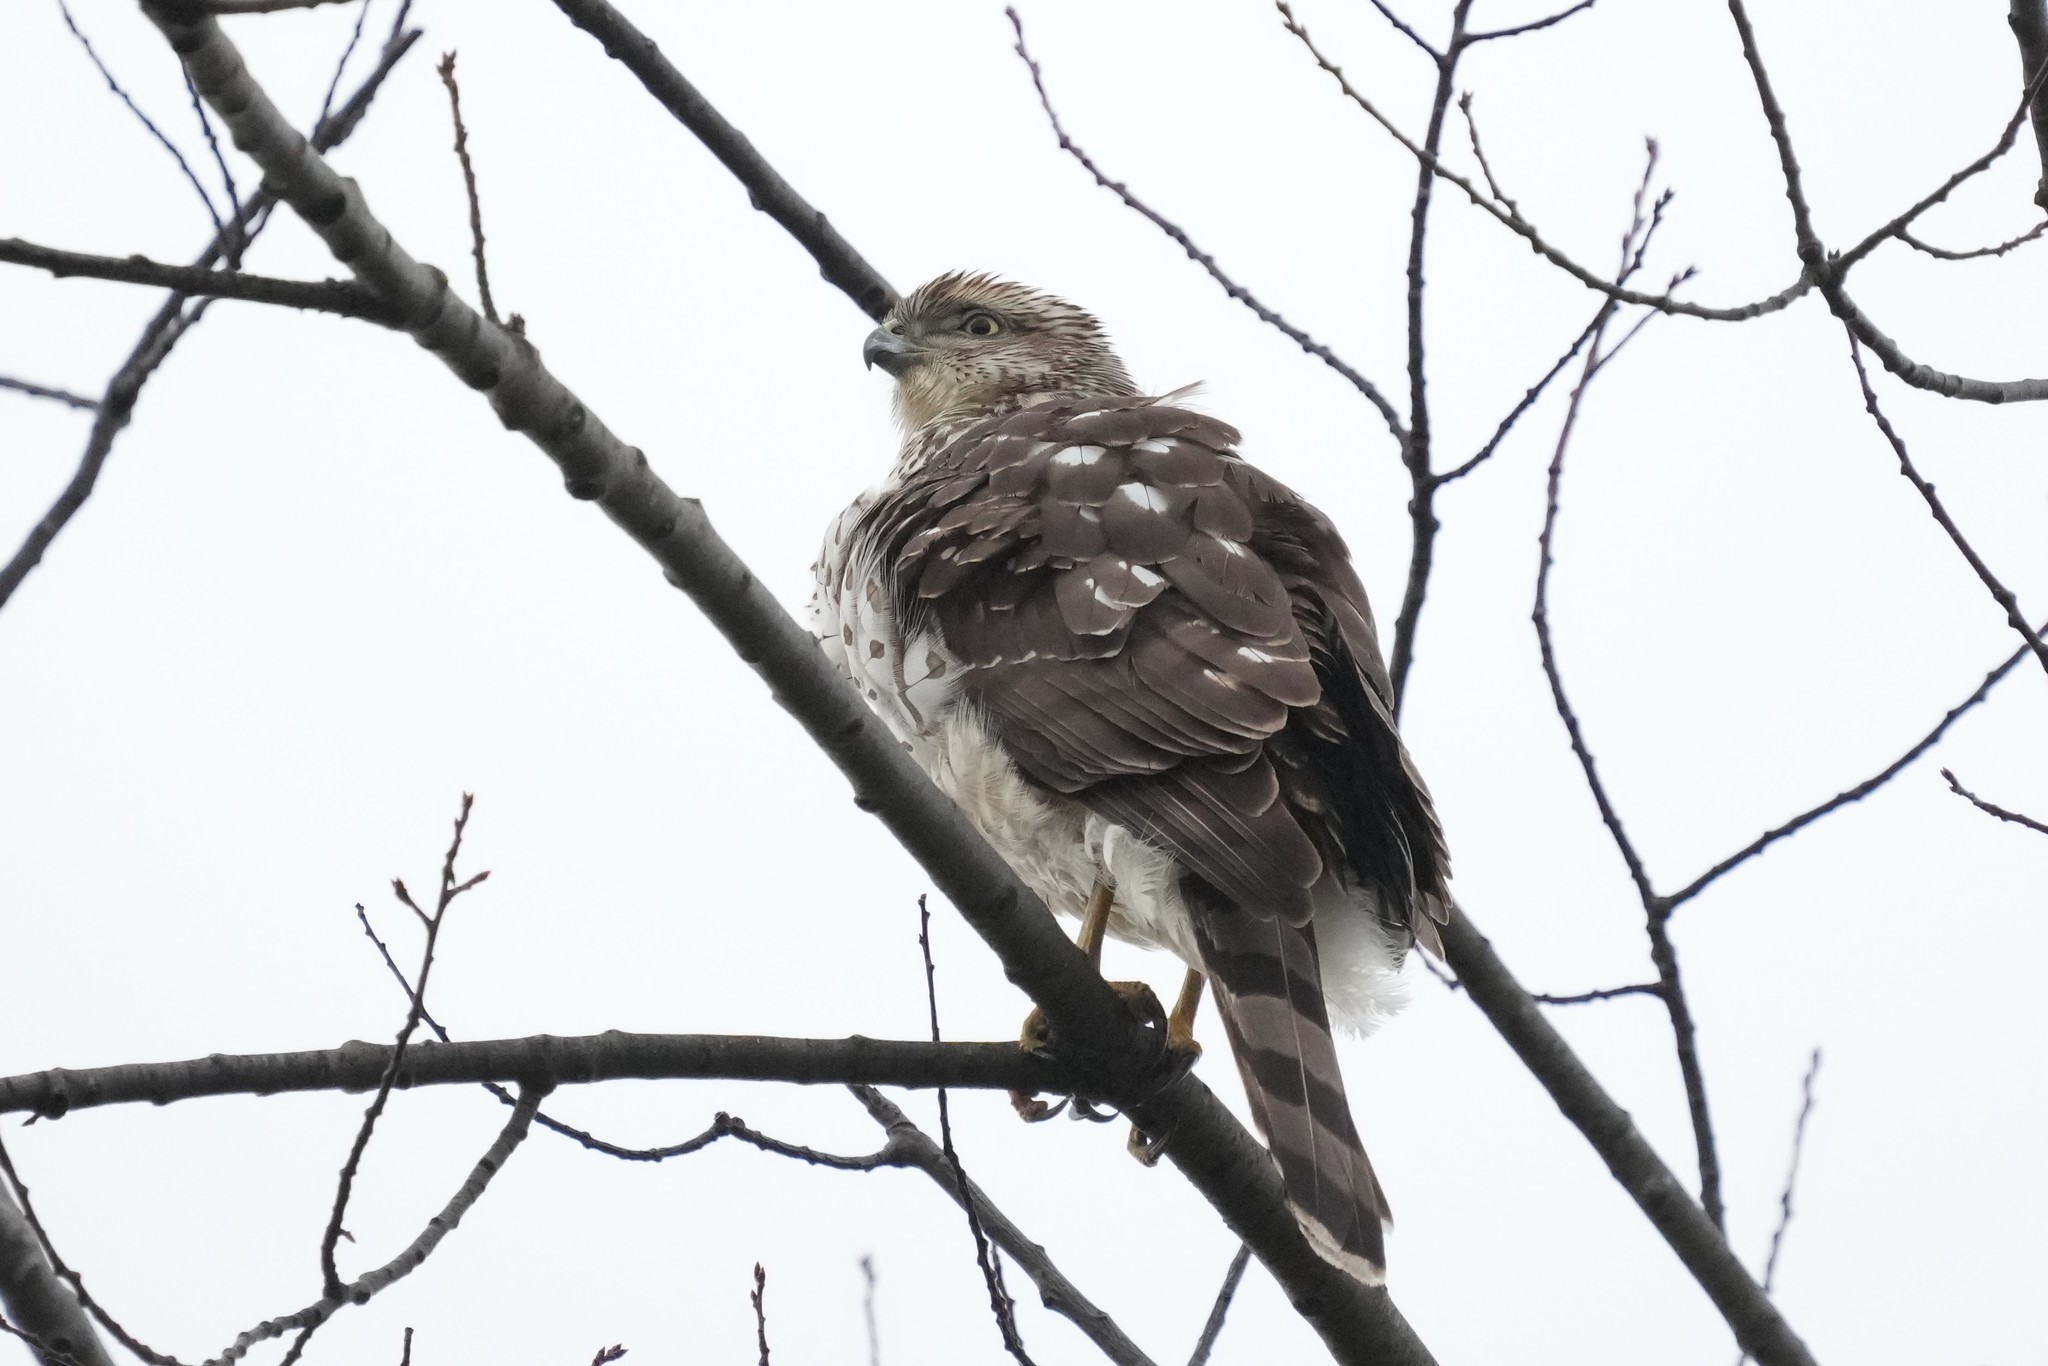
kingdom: Animalia
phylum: Chordata
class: Aves
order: Accipitriformes
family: Accipitridae
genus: Accipiter
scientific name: Accipiter cooperii
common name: Cooper's hawk
